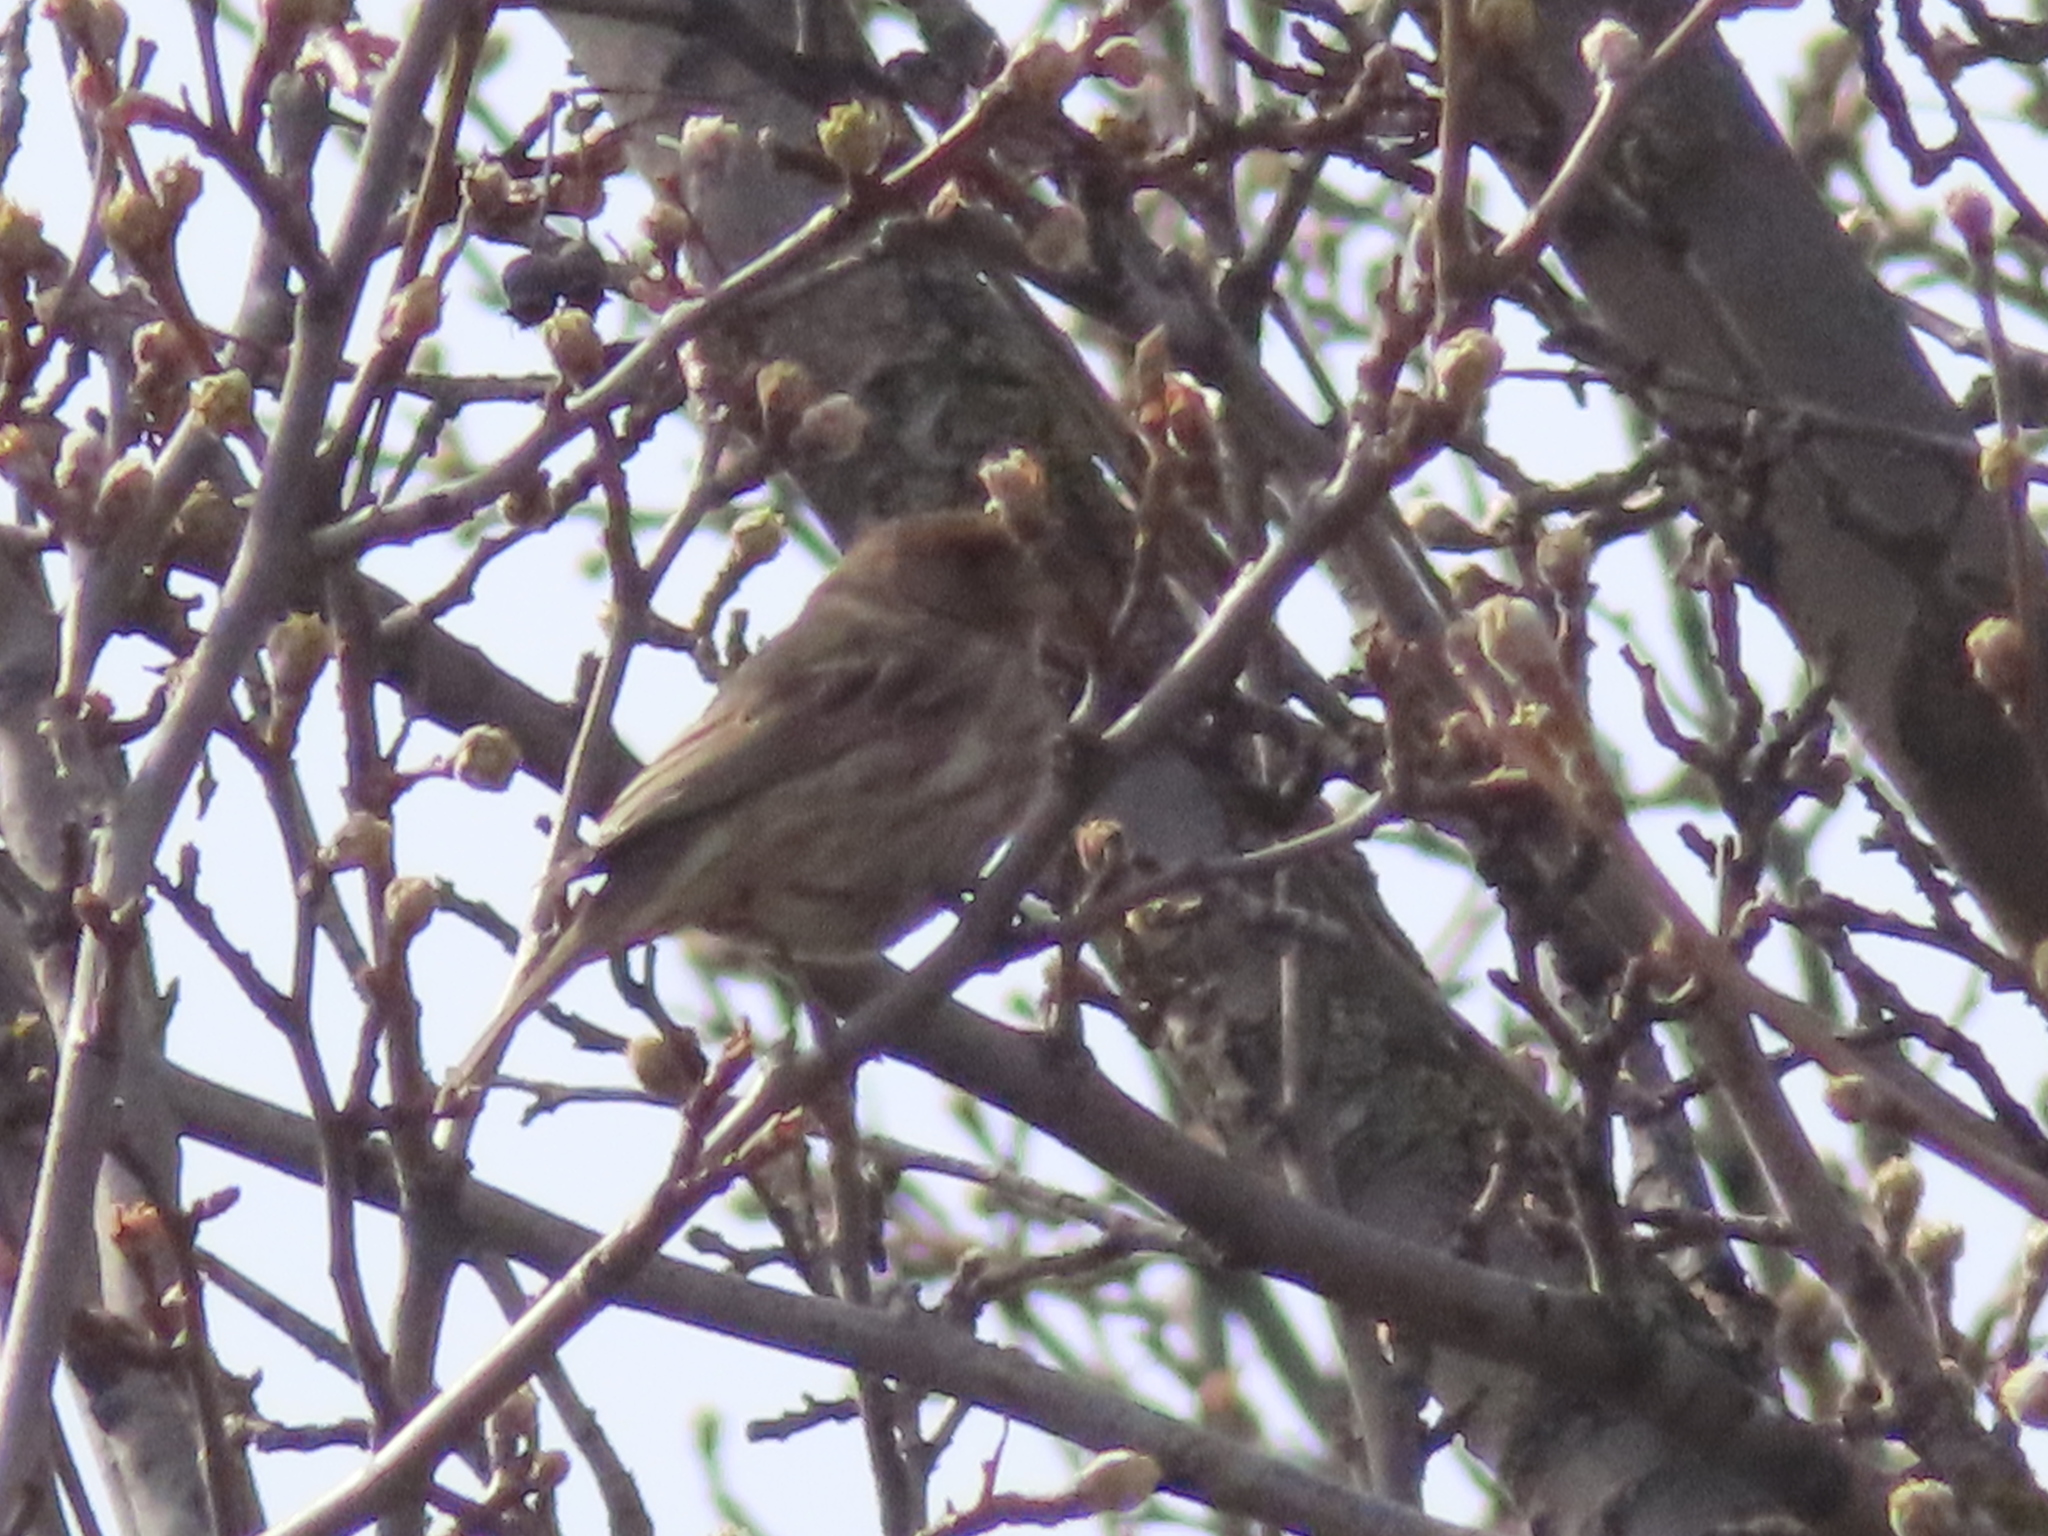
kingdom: Animalia
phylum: Chordata
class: Aves
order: Passeriformes
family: Fringillidae
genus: Haemorhous
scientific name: Haemorhous mexicanus
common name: House finch
